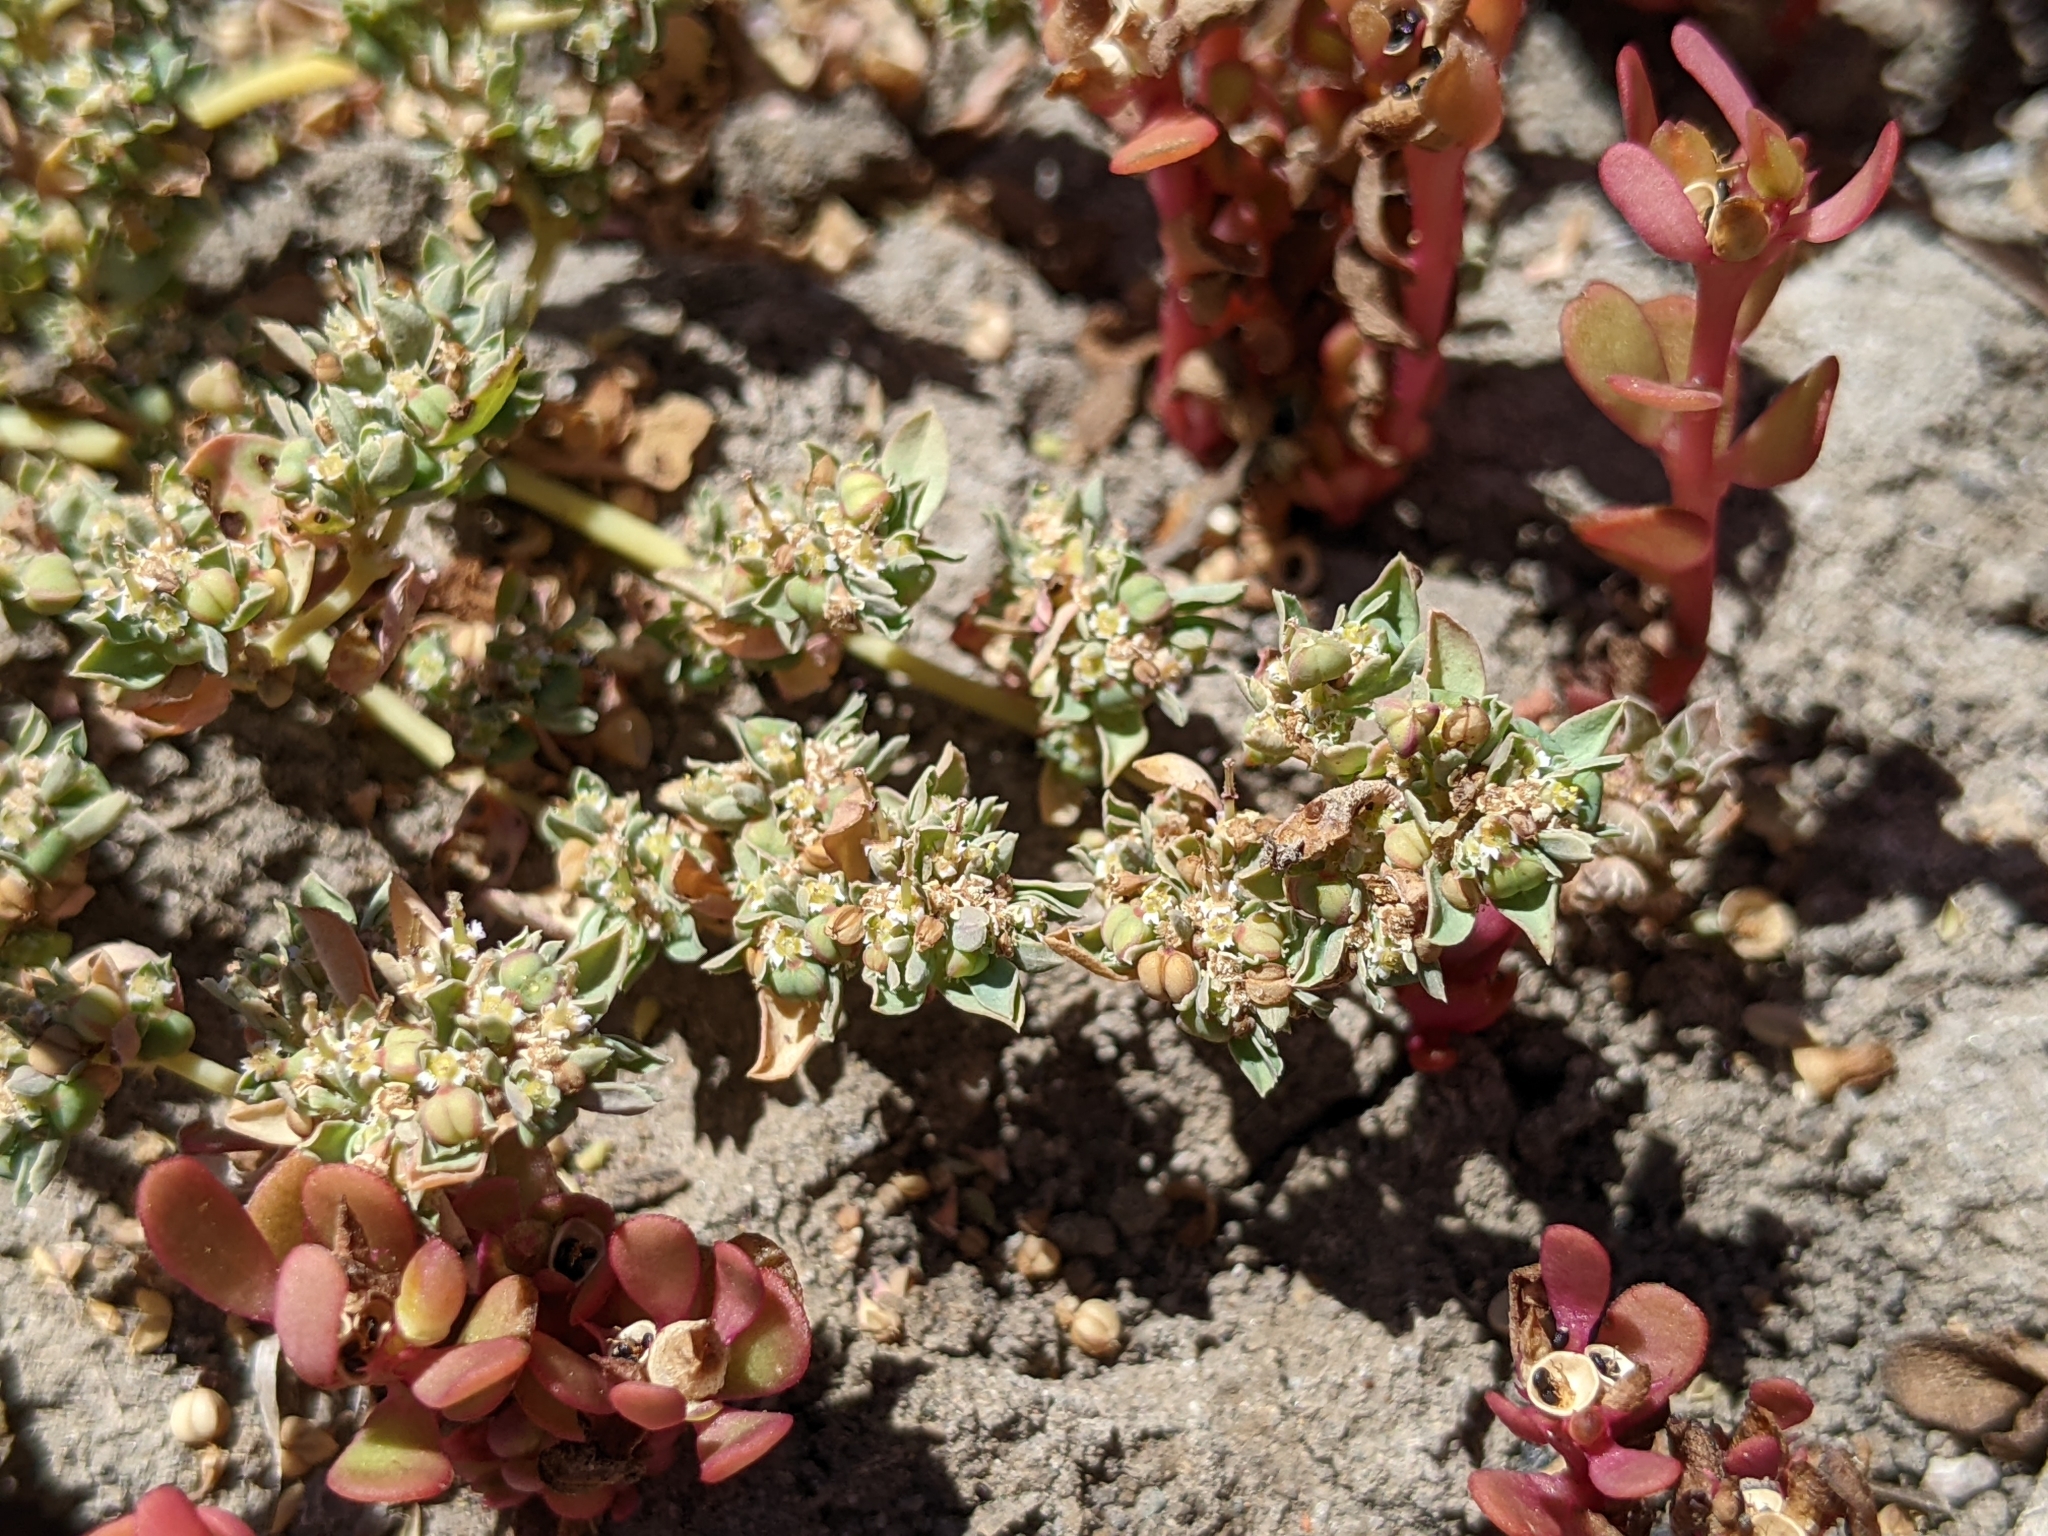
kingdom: Plantae
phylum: Tracheophyta
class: Magnoliopsida
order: Malpighiales
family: Euphorbiaceae
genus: Euphorbia
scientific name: Euphorbia serpillifolia
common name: Thyme-leaf spurge
